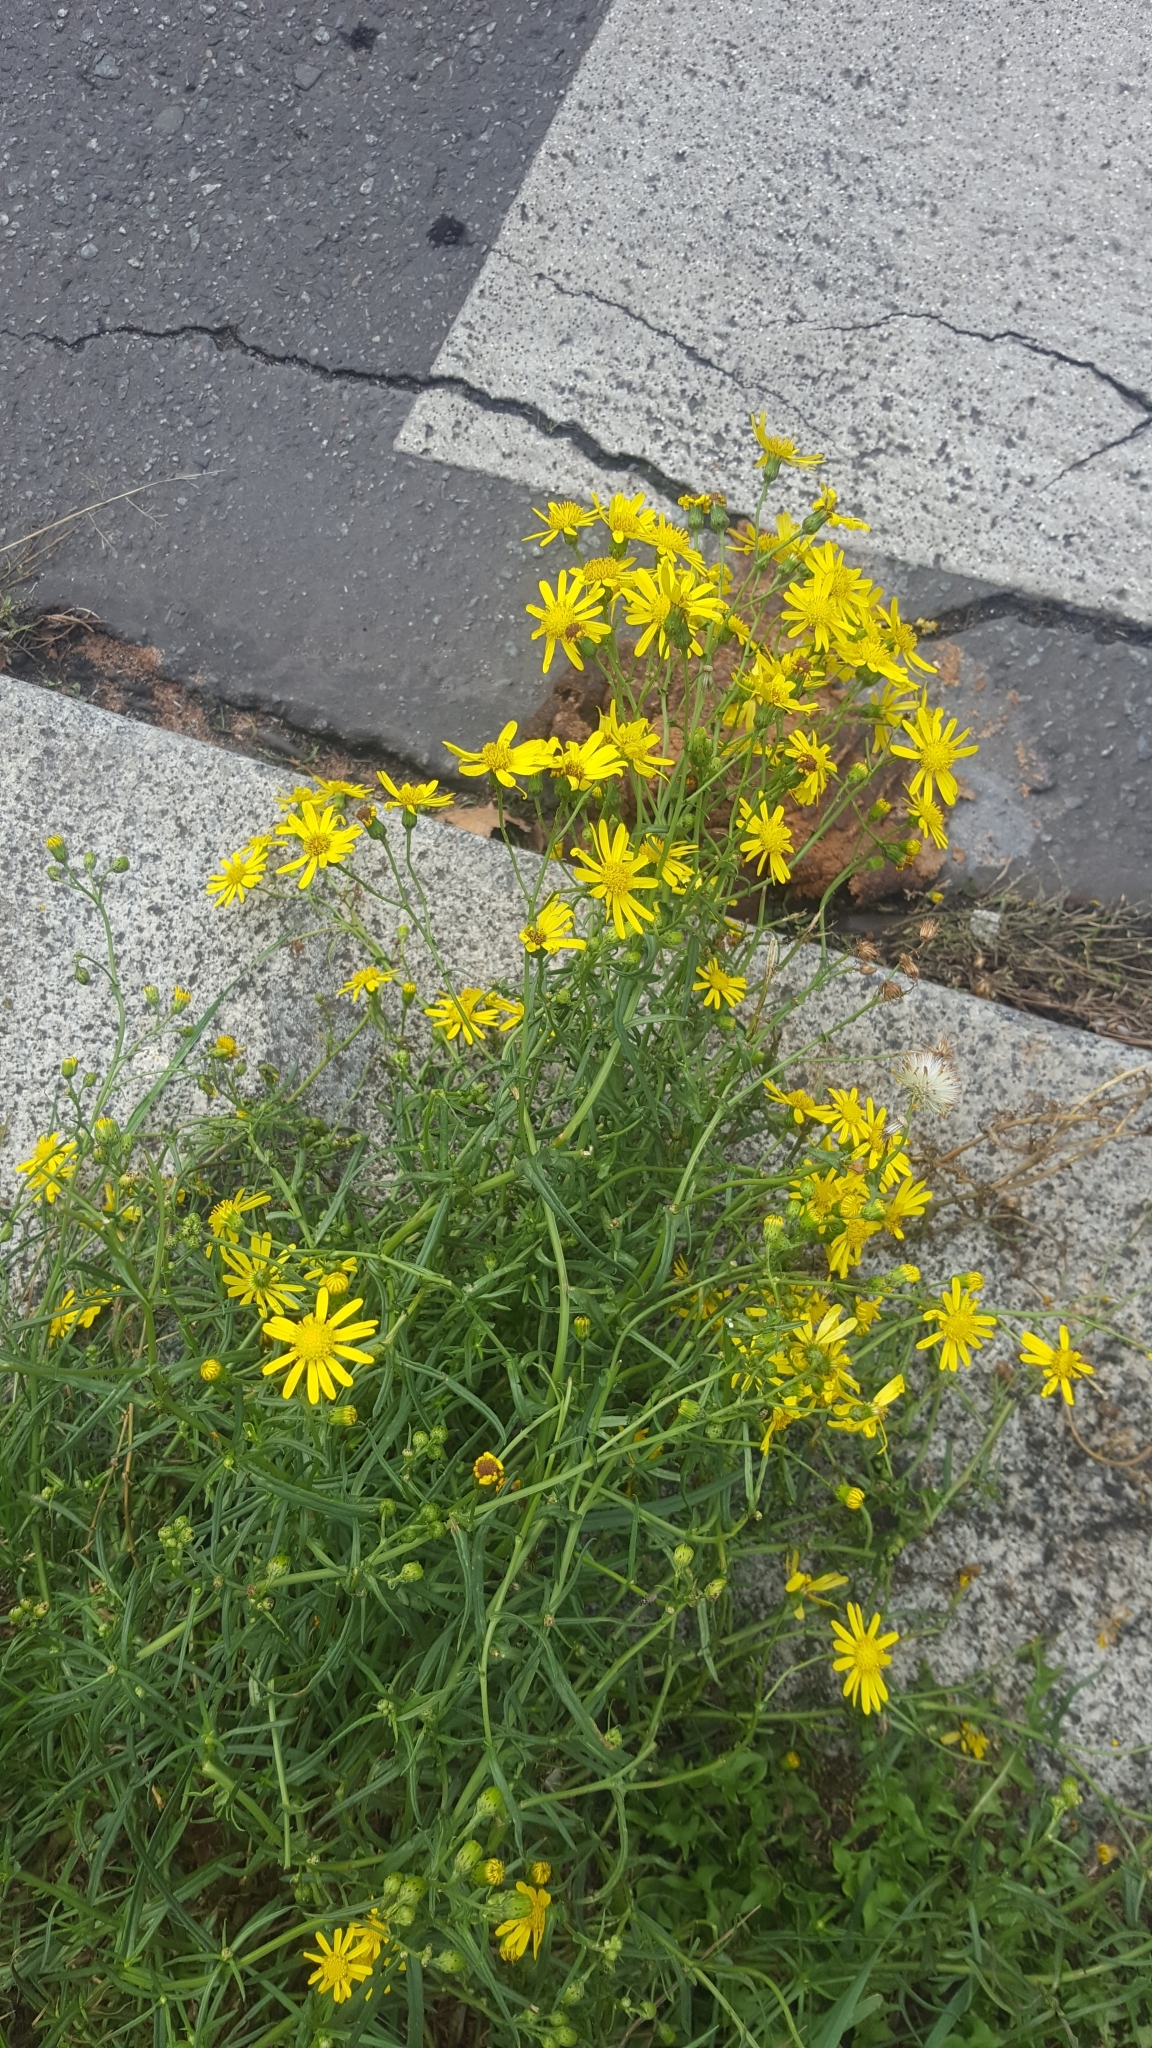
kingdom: Plantae
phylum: Tracheophyta
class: Magnoliopsida
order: Asterales
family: Asteraceae
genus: Senecio
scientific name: Senecio inaequidens
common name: Narrow-leaved ragwort
